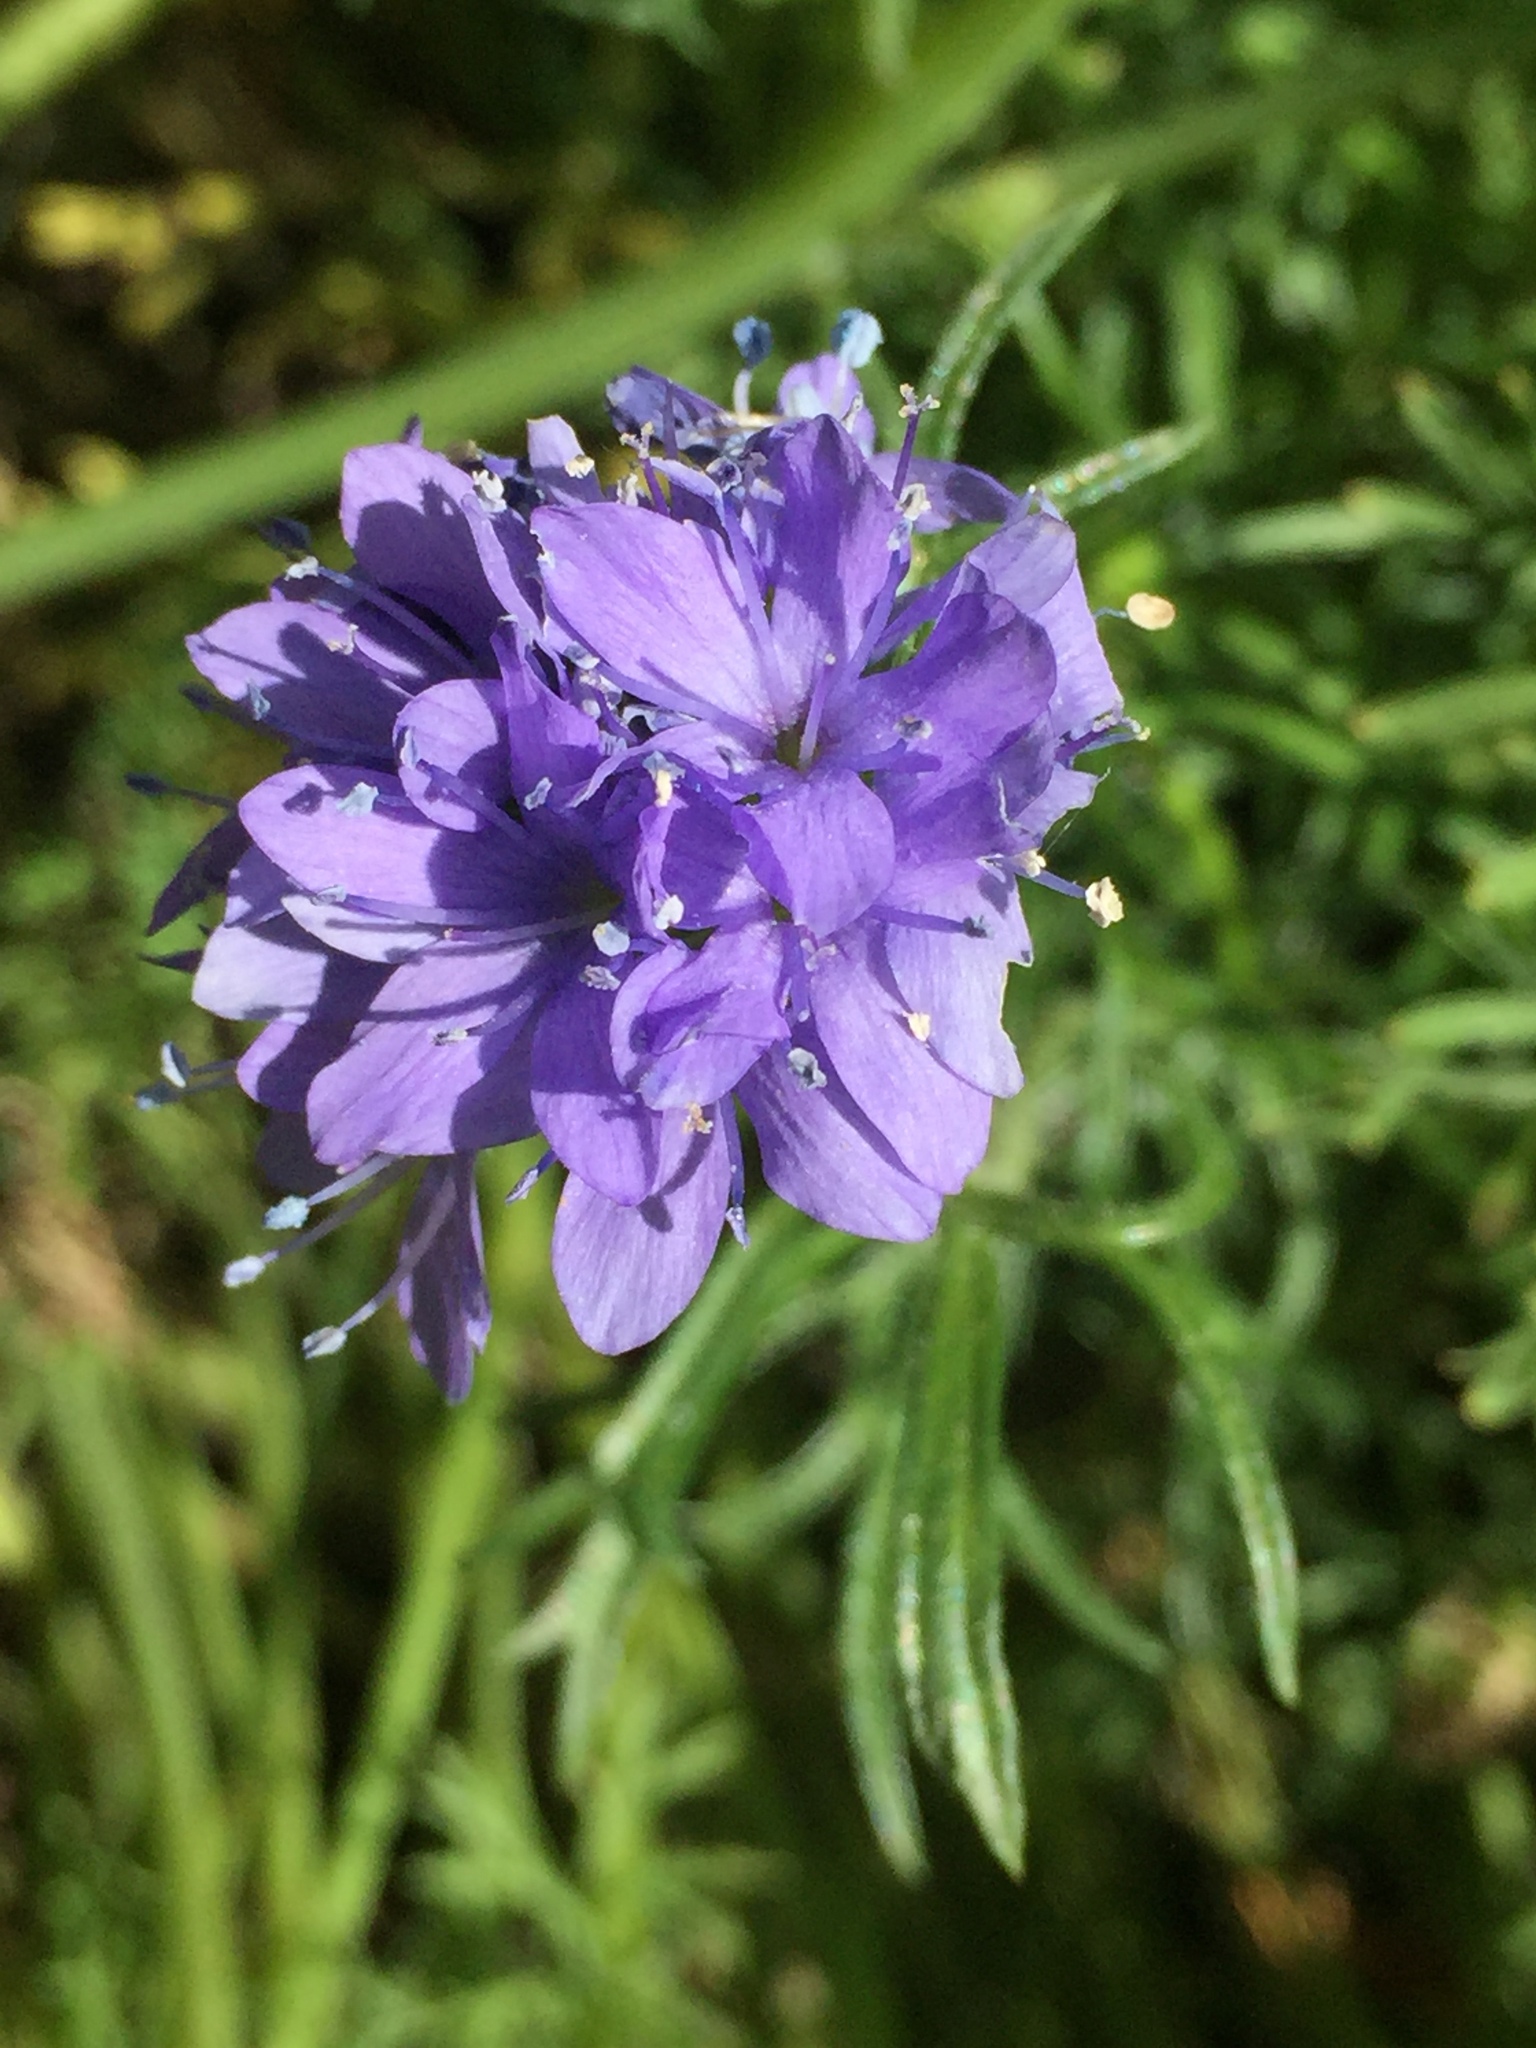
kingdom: Plantae
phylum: Tracheophyta
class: Magnoliopsida
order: Ericales
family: Polemoniaceae
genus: Gilia
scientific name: Gilia capitata
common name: Bluehead gilia
